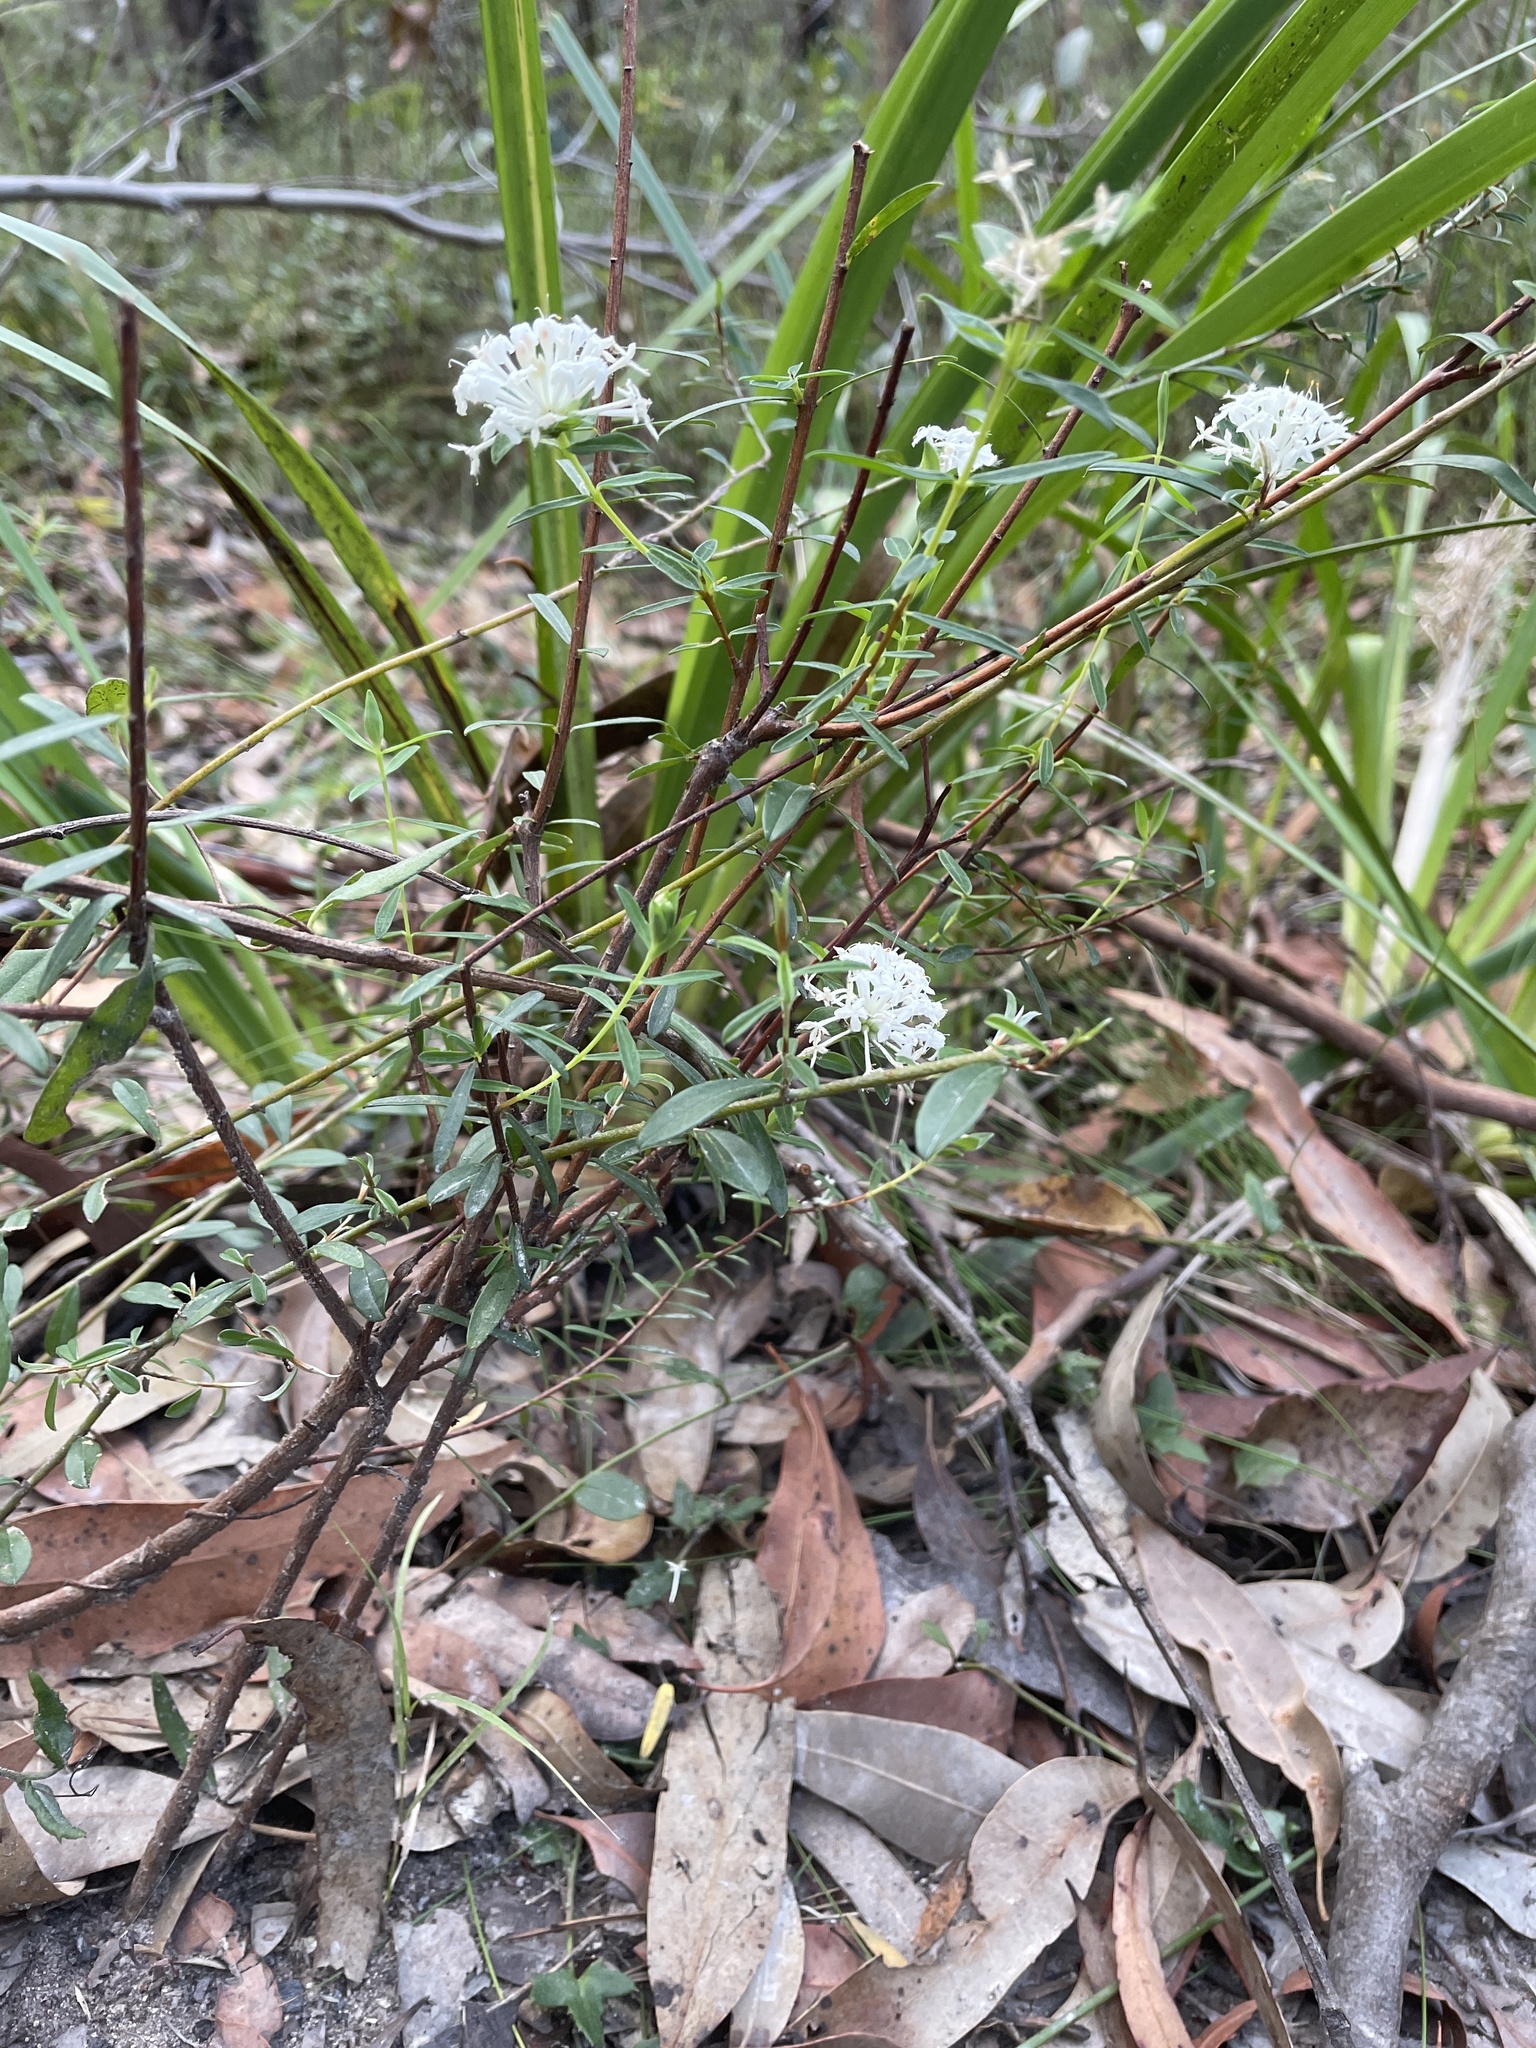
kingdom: Plantae
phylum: Tracheophyta
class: Magnoliopsida
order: Malvales
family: Thymelaeaceae
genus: Pimelea
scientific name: Pimelea linifolia
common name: Queen-of-the-bush
